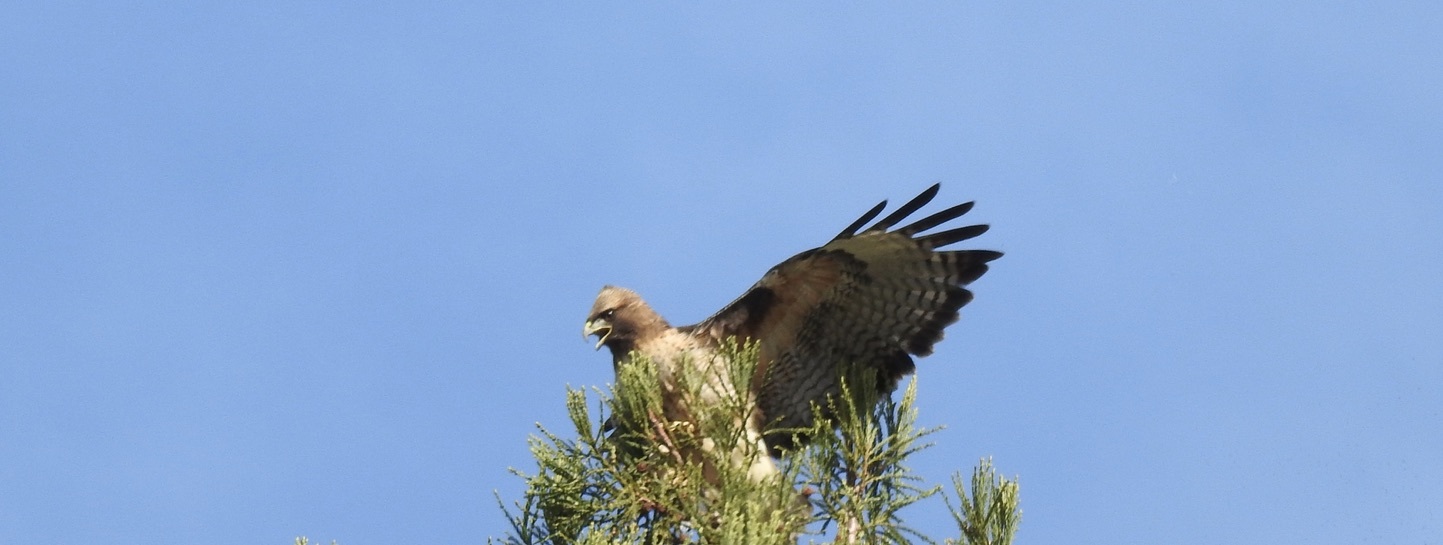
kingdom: Animalia
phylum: Chordata
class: Aves
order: Accipitriformes
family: Accipitridae
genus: Buteo
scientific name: Buteo jamaicensis
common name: Red-tailed hawk
